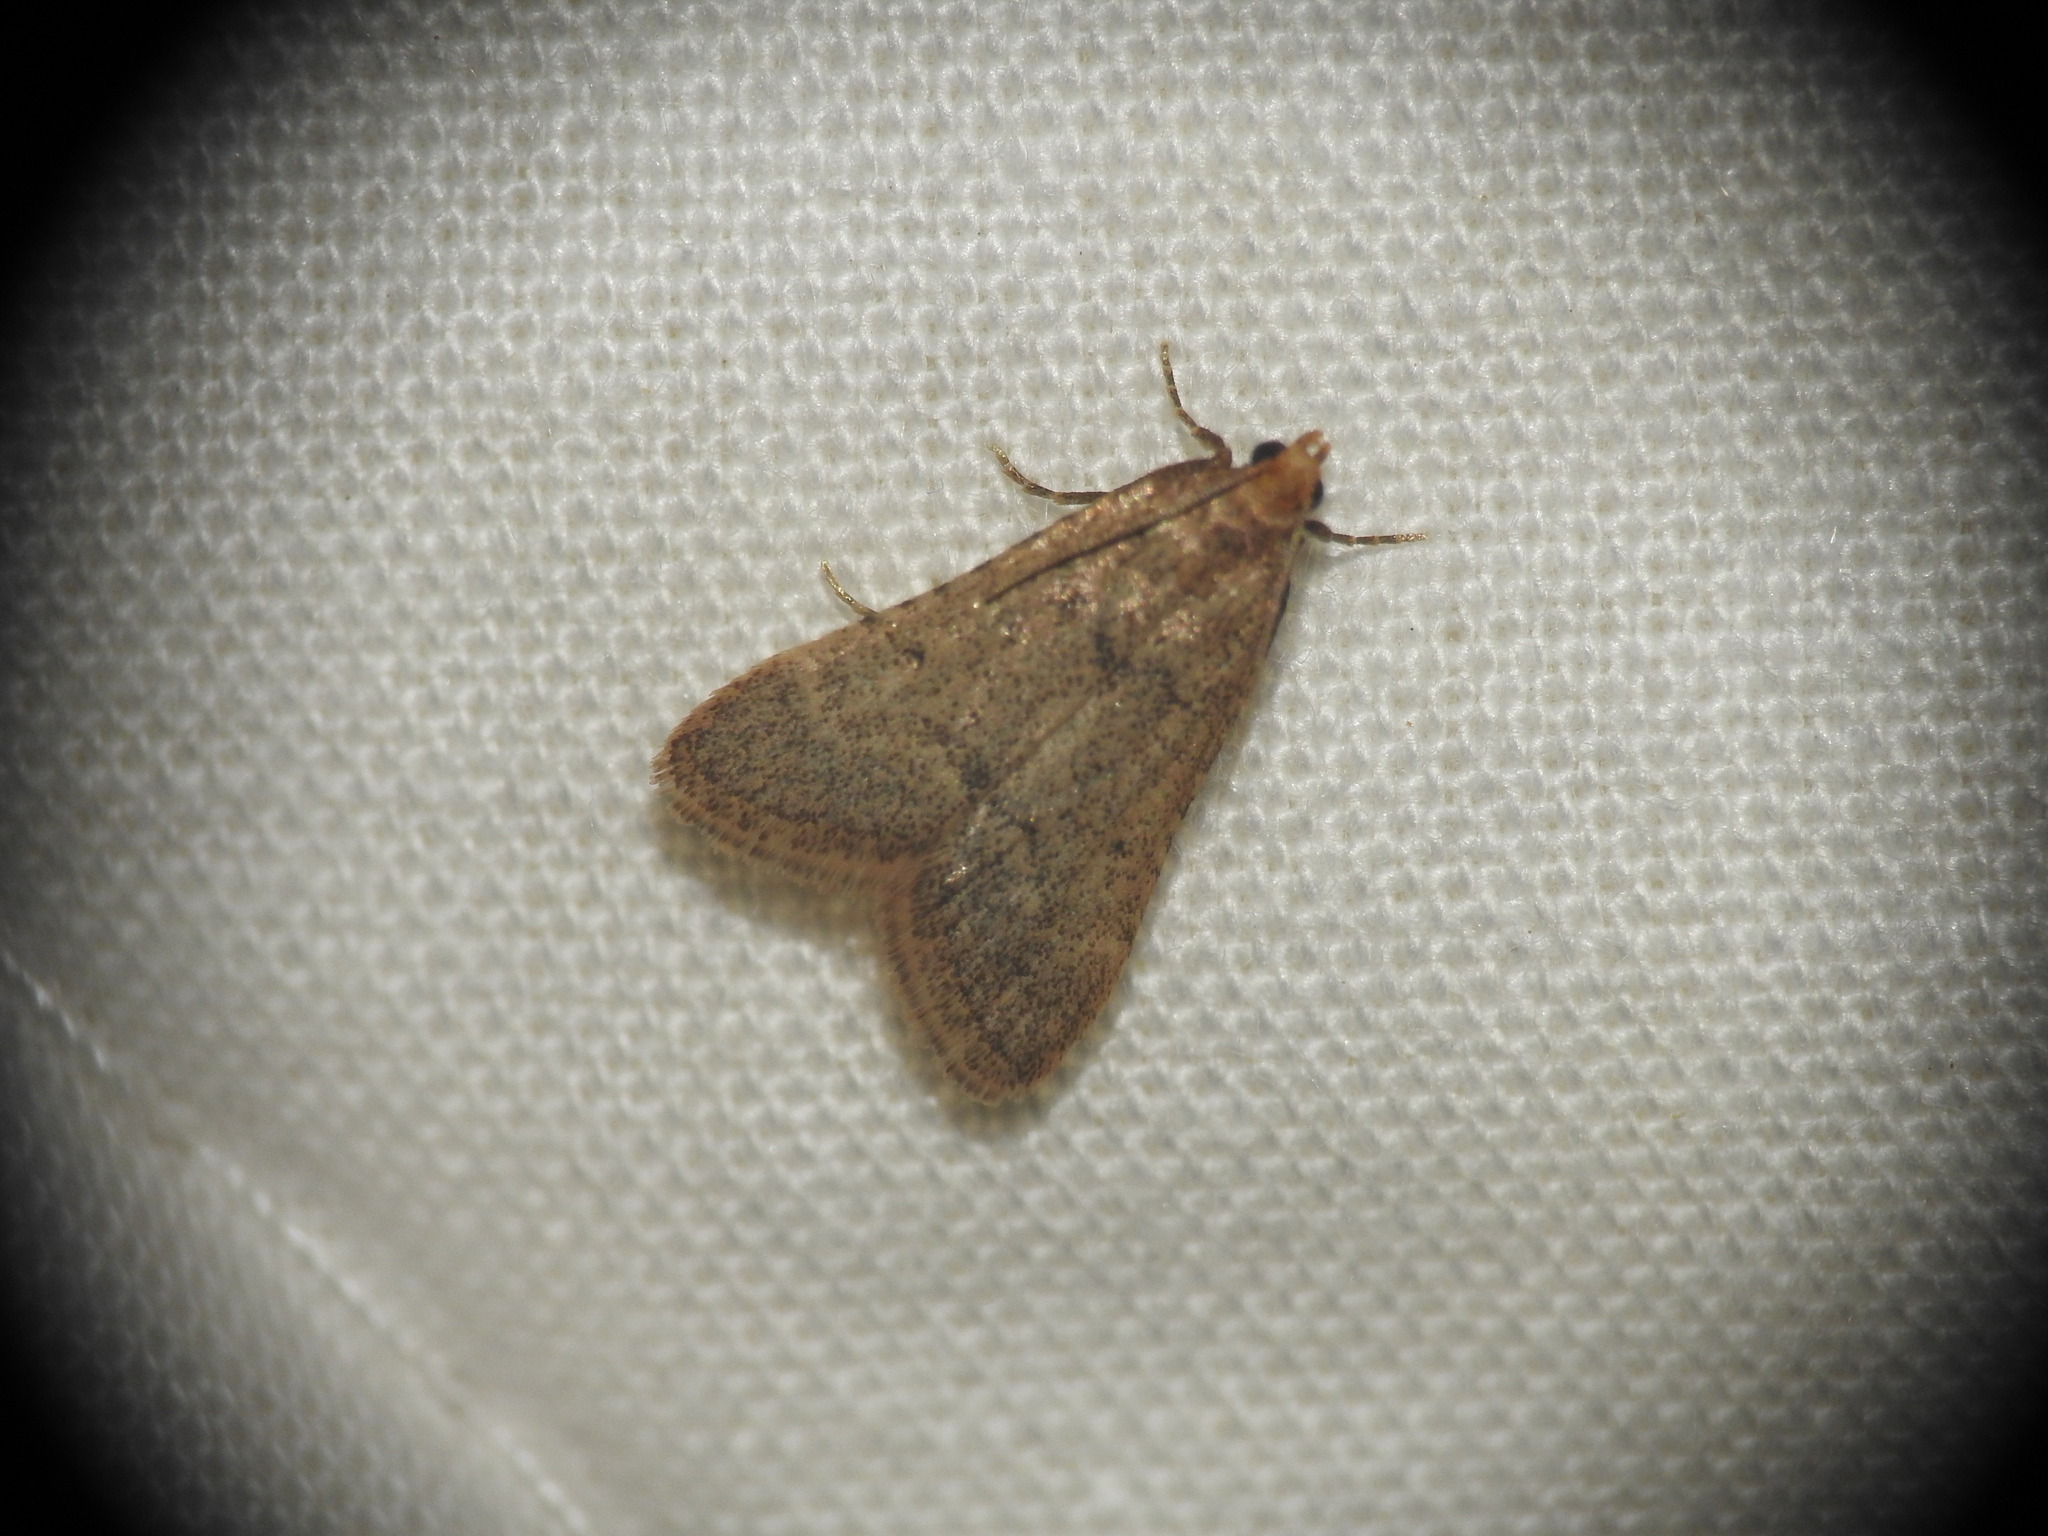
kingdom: Animalia
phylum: Arthropoda
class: Insecta
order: Lepidoptera
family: Pyralidae
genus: Bostra
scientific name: Bostra obsoletalis
